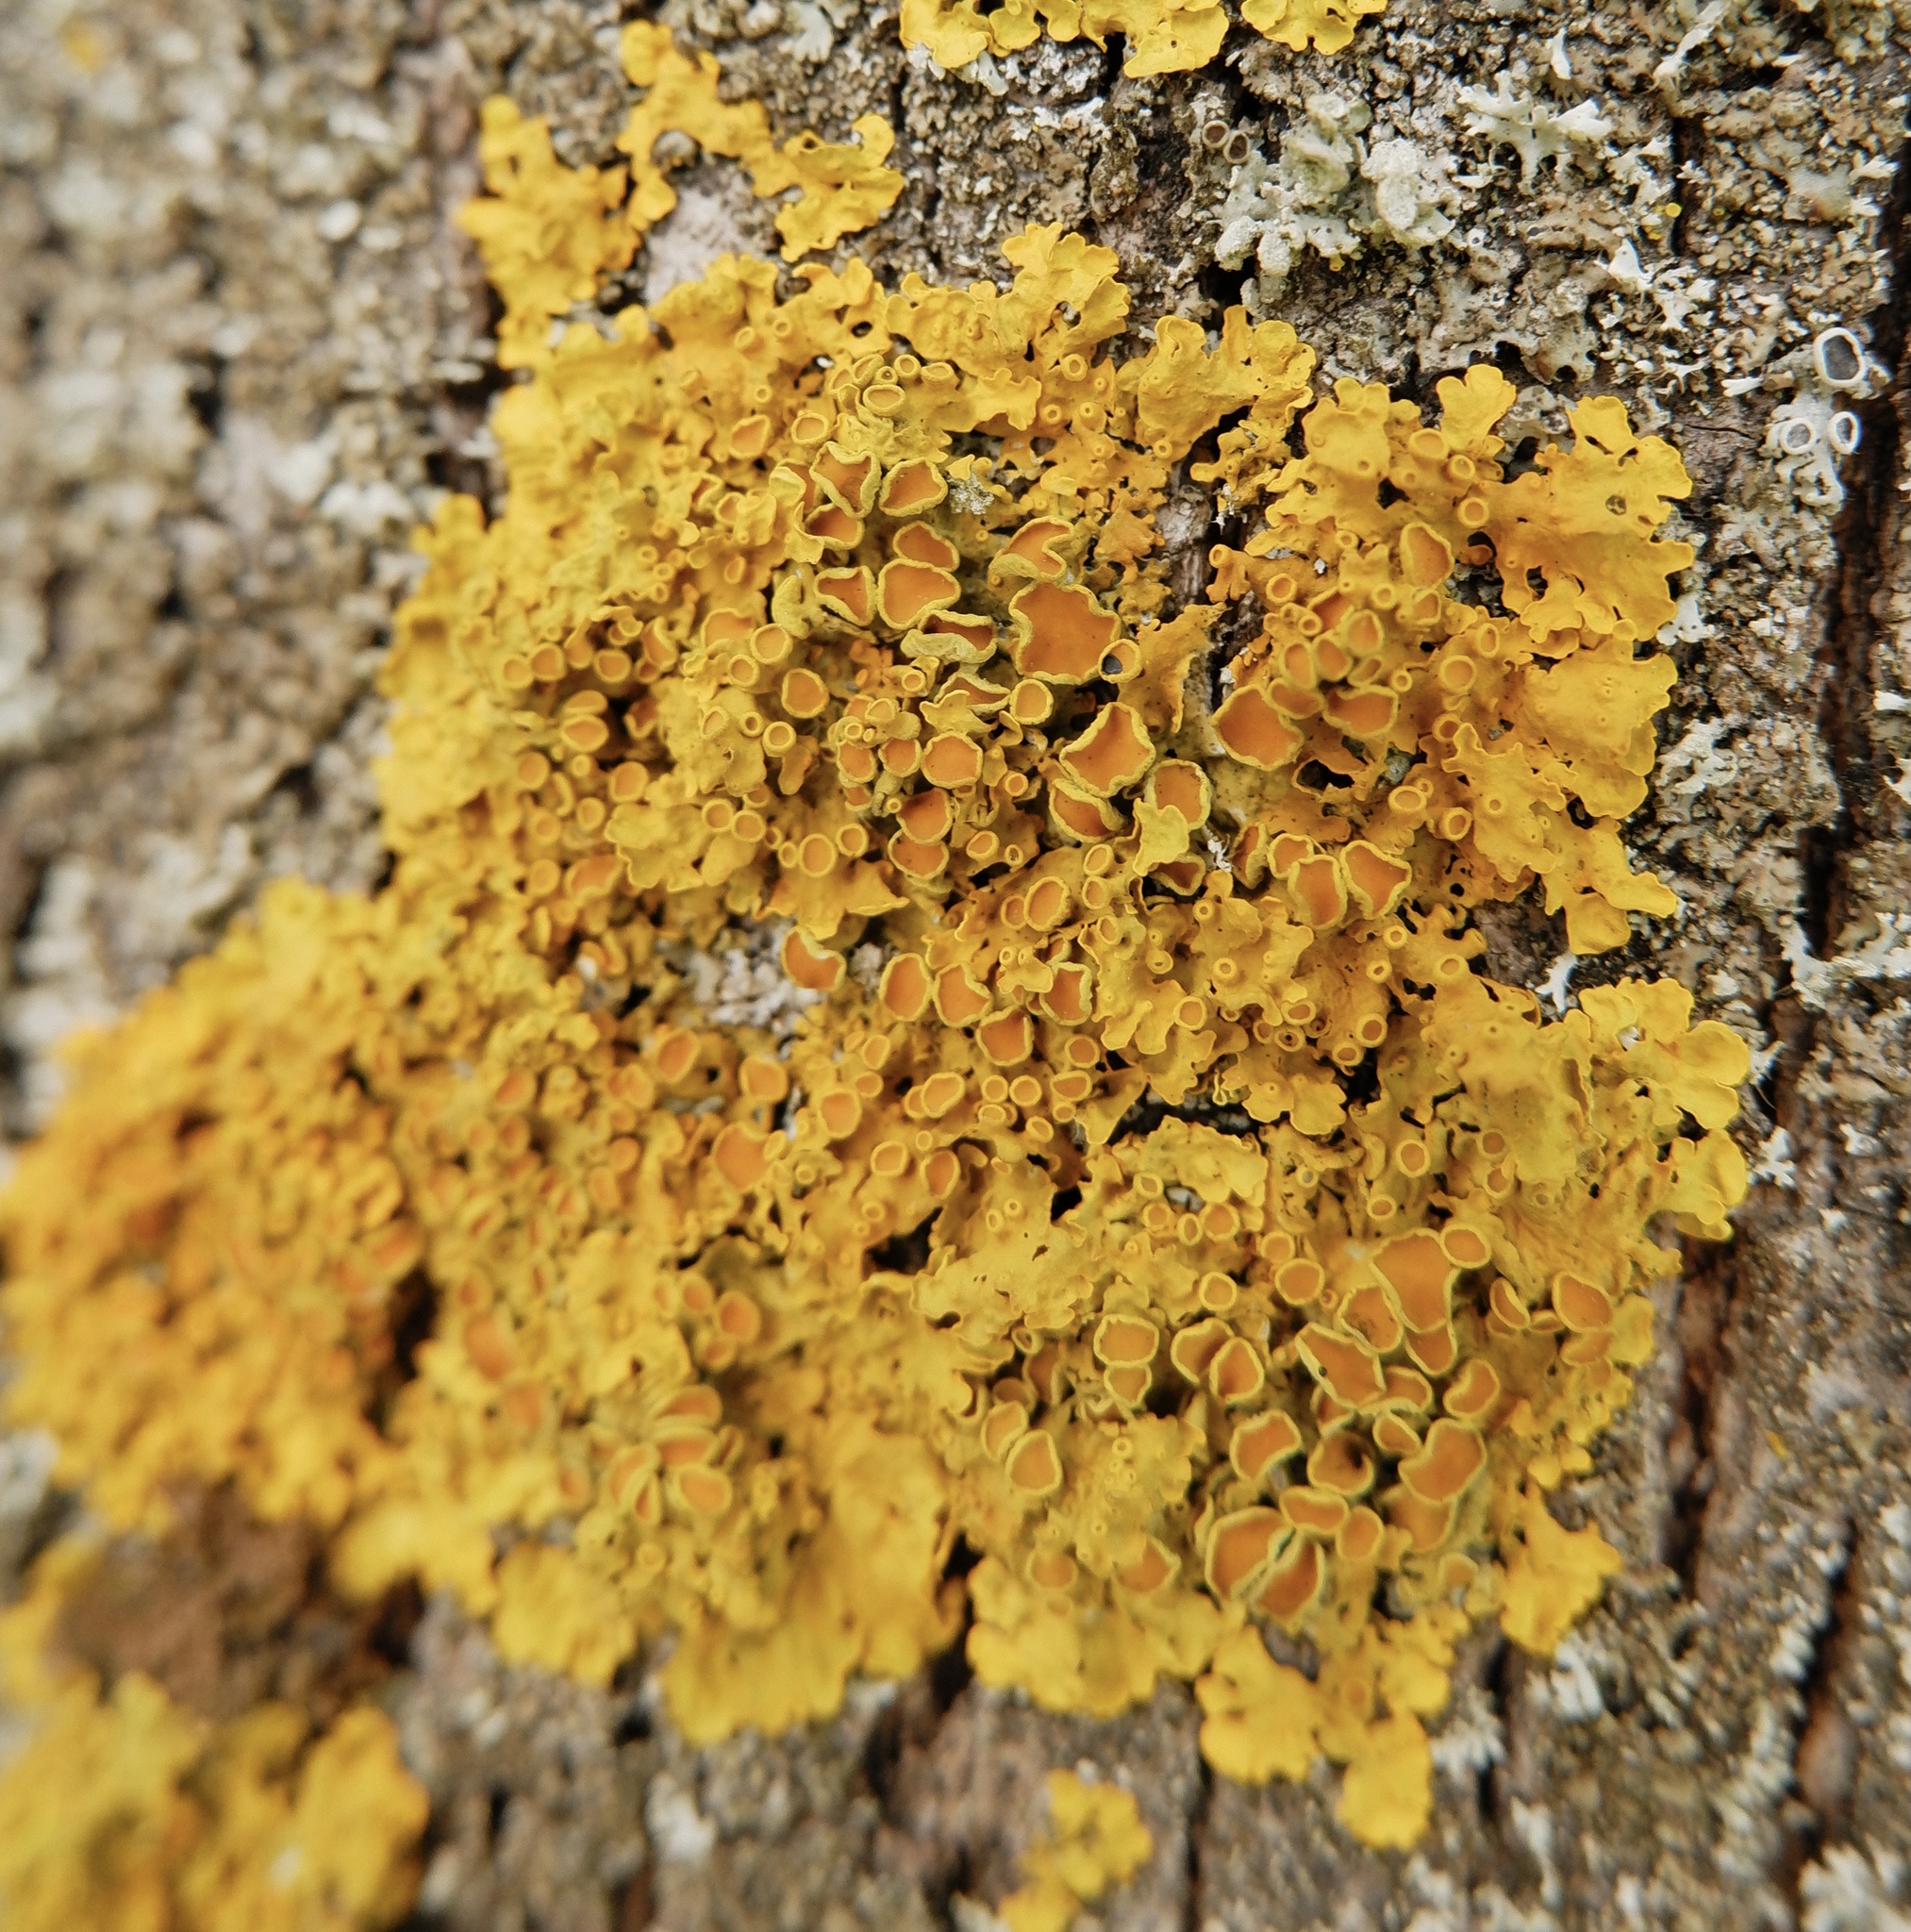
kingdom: Fungi
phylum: Ascomycota
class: Lecanoromycetes
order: Teloschistales
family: Teloschistaceae
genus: Xanthoria
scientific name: Xanthoria parietina
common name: Common orange lichen
